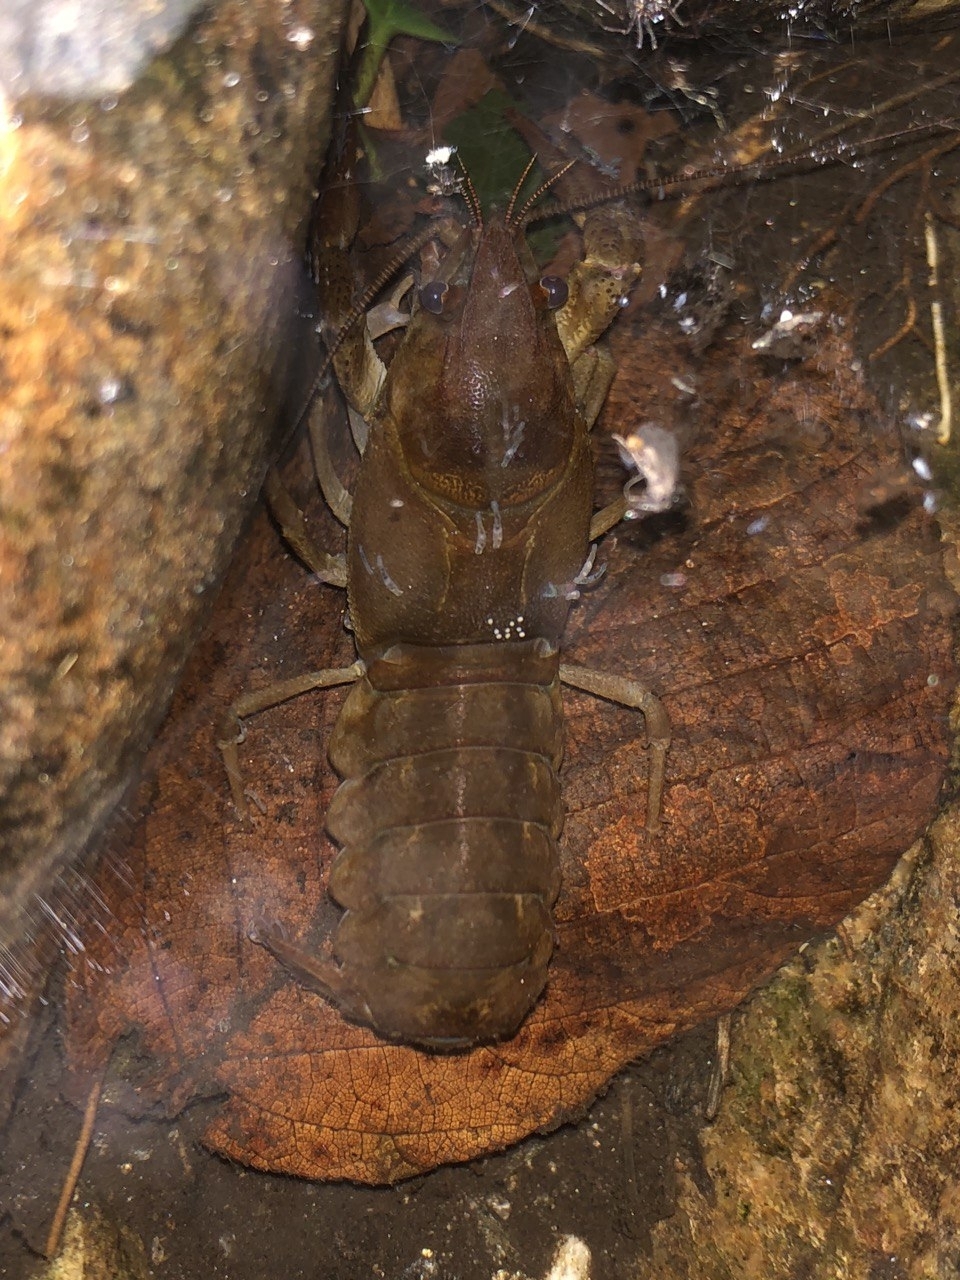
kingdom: Animalia
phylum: Arthropoda
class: Malacostraca
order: Decapoda
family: Astacidae
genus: Austropotamobius
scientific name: Austropotamobius pallipes
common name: White-clawed crayfish
